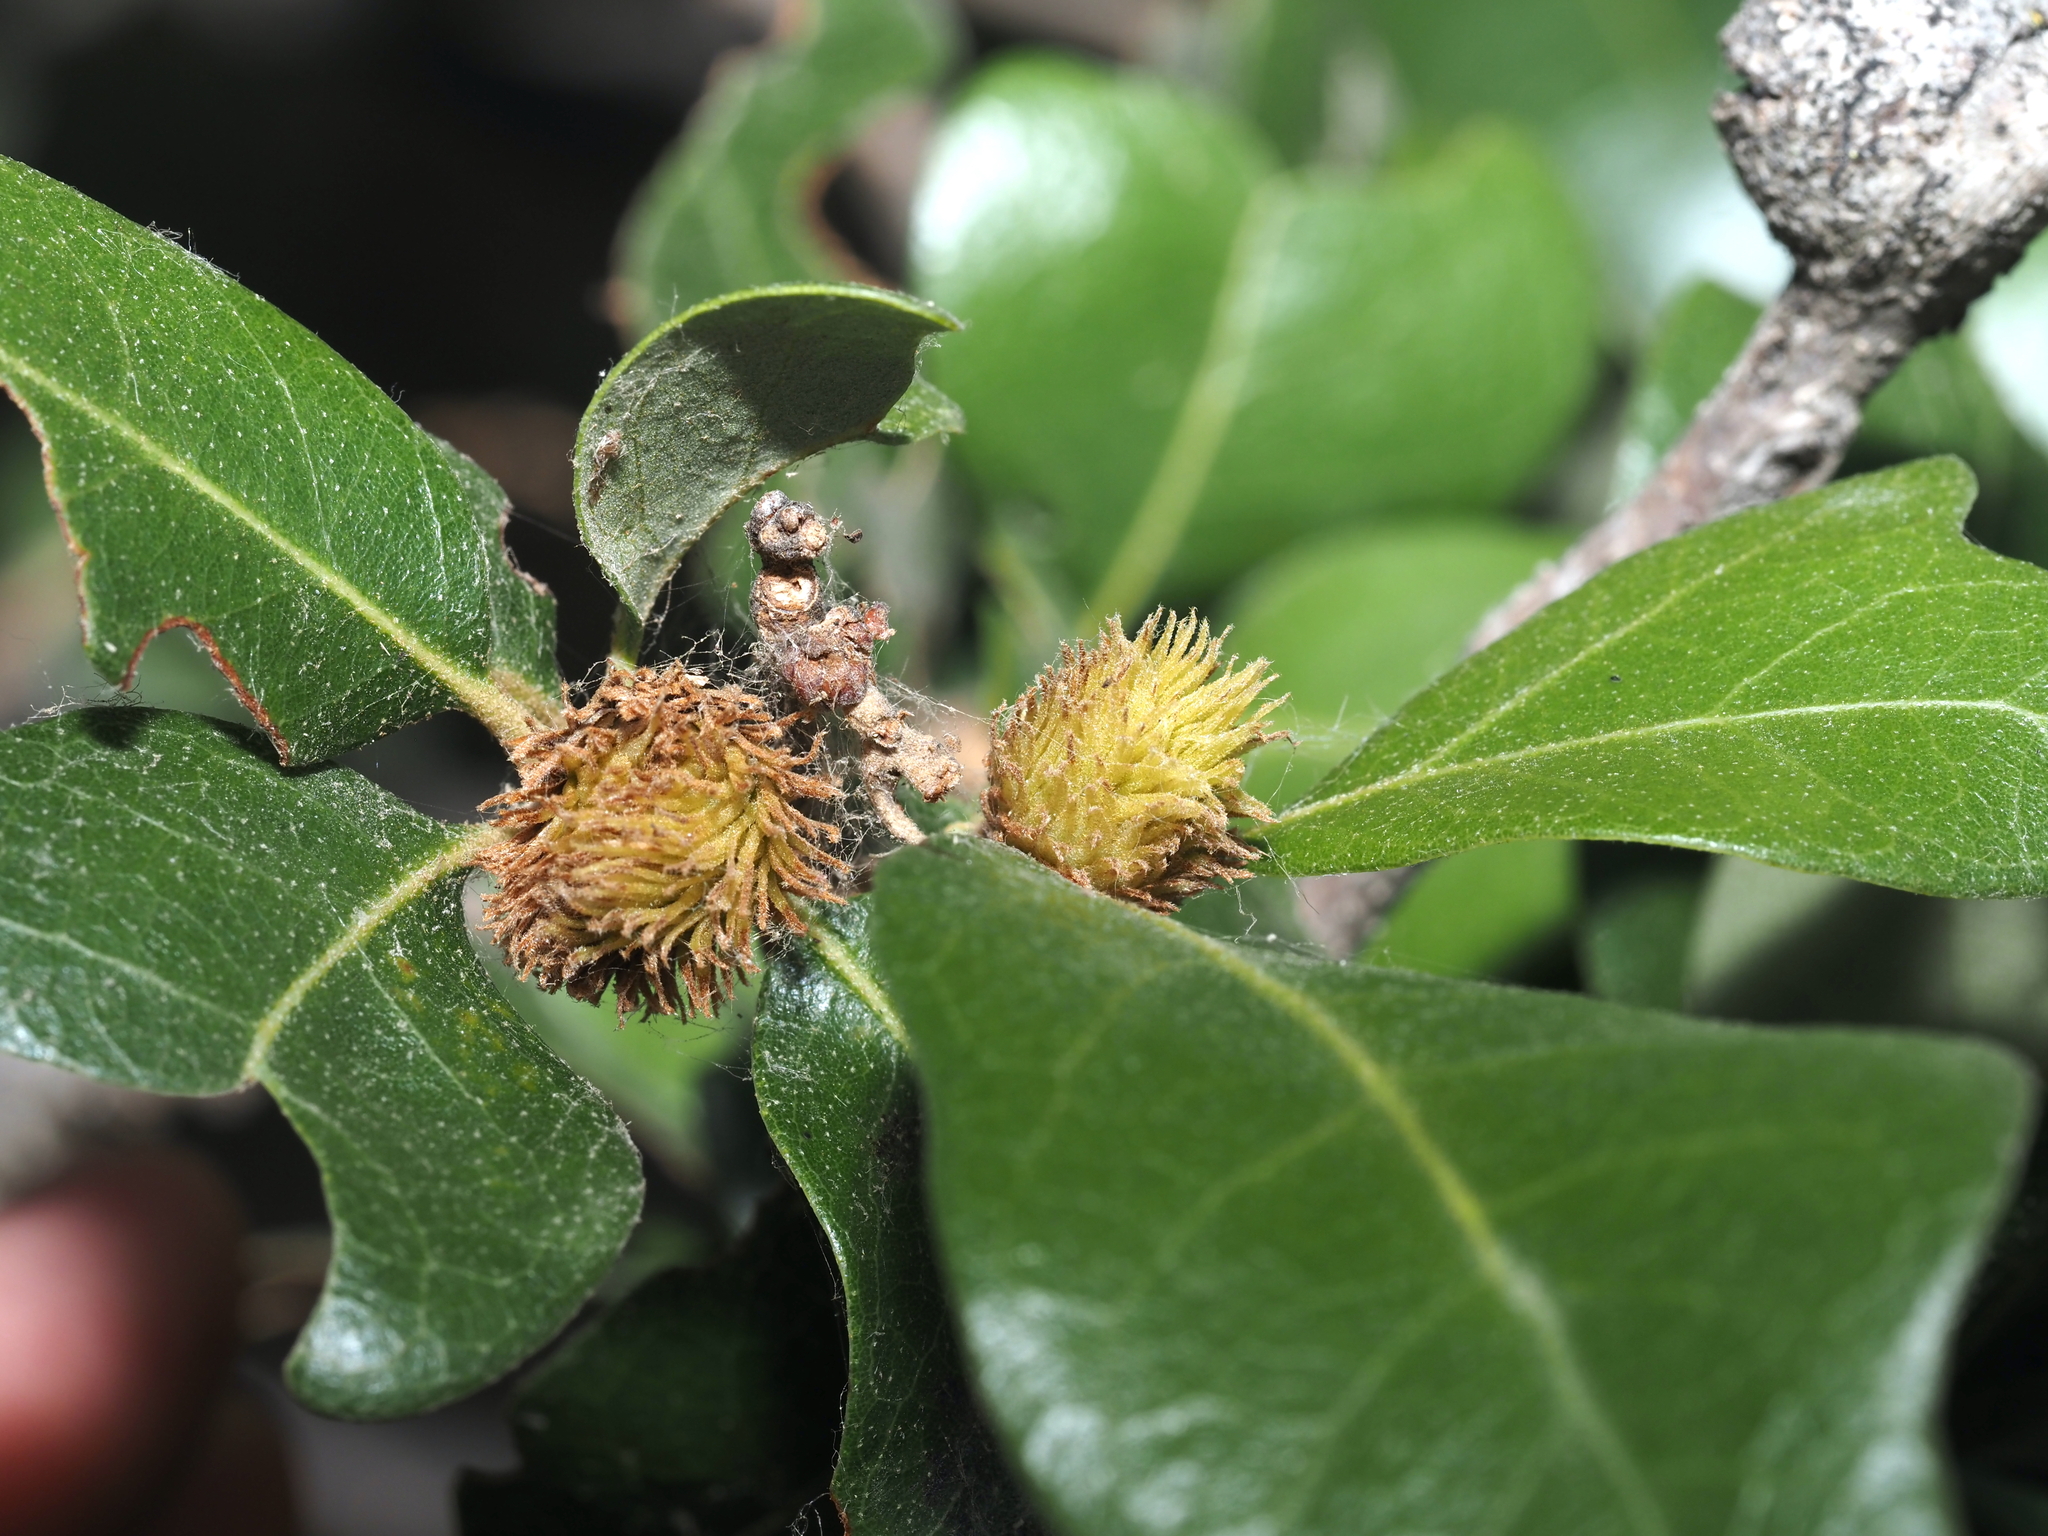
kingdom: Animalia
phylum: Arthropoda
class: Insecta
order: Hymenoptera
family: Cynipidae
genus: Andricus
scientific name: Andricus quercusfoliatus
